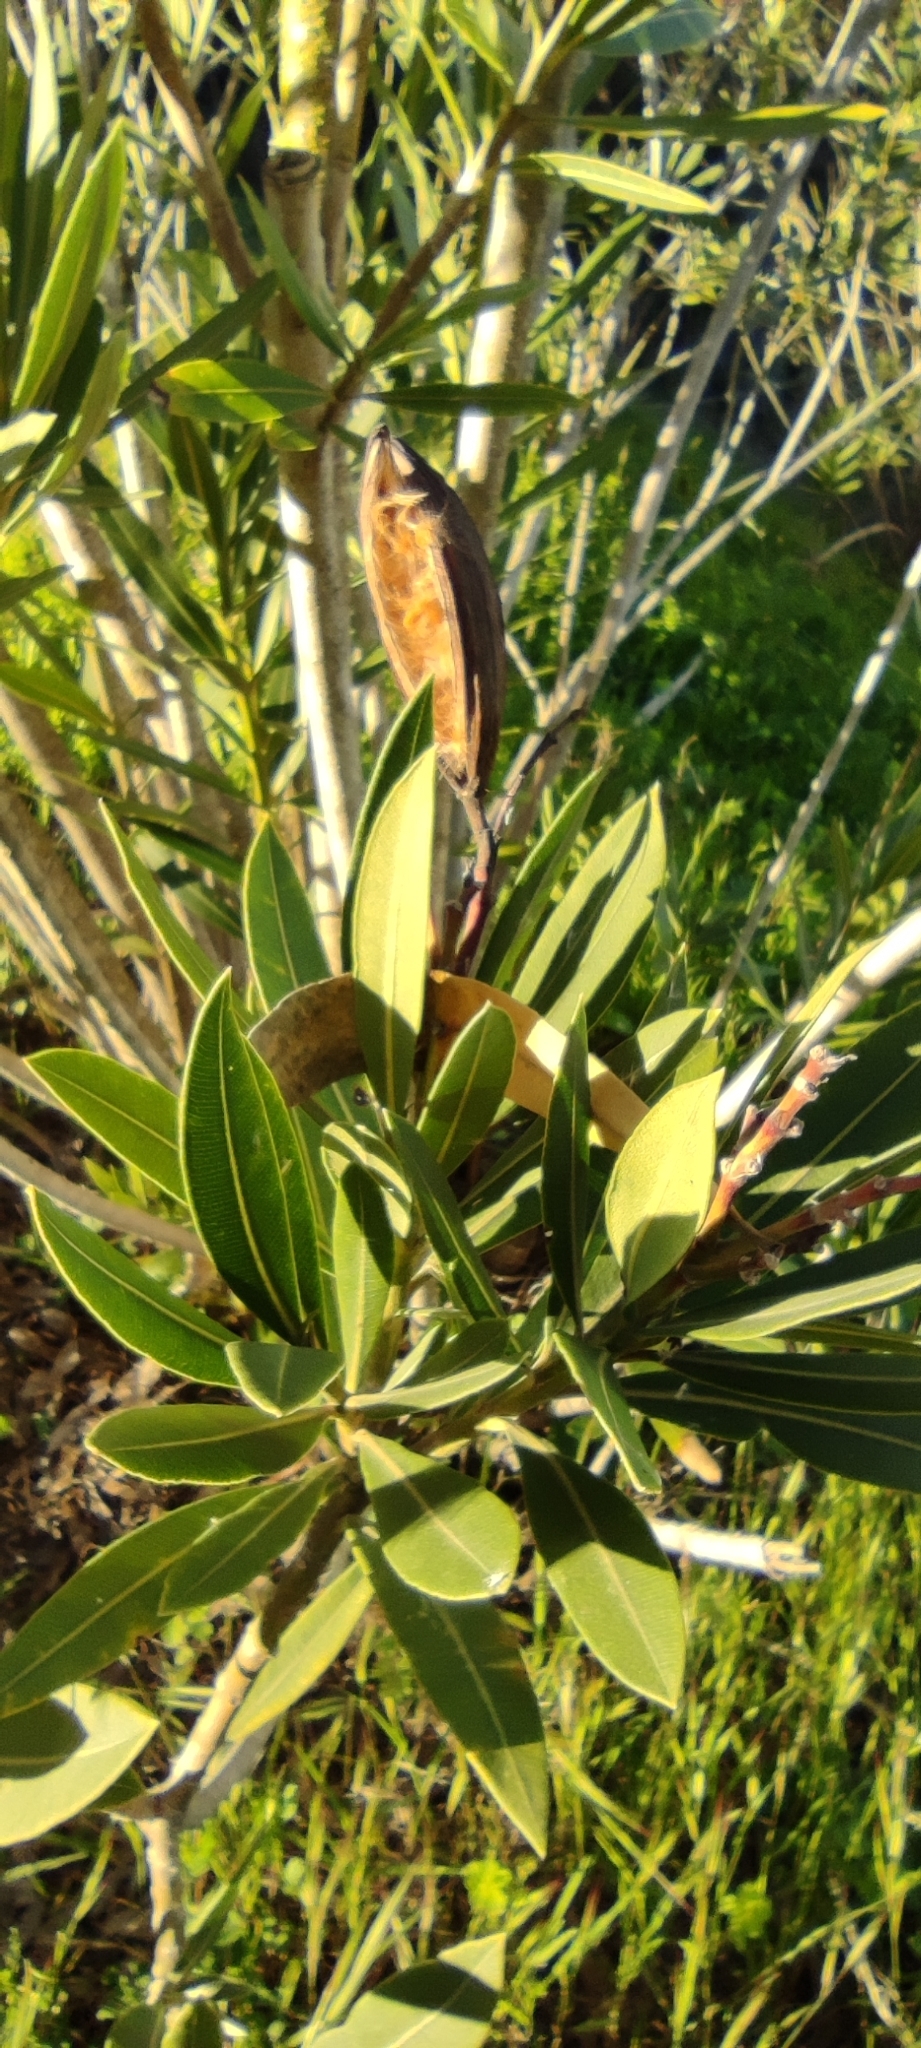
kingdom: Plantae
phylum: Tracheophyta
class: Magnoliopsida
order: Gentianales
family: Apocynaceae
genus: Nerium
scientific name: Nerium oleander
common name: Oleander
